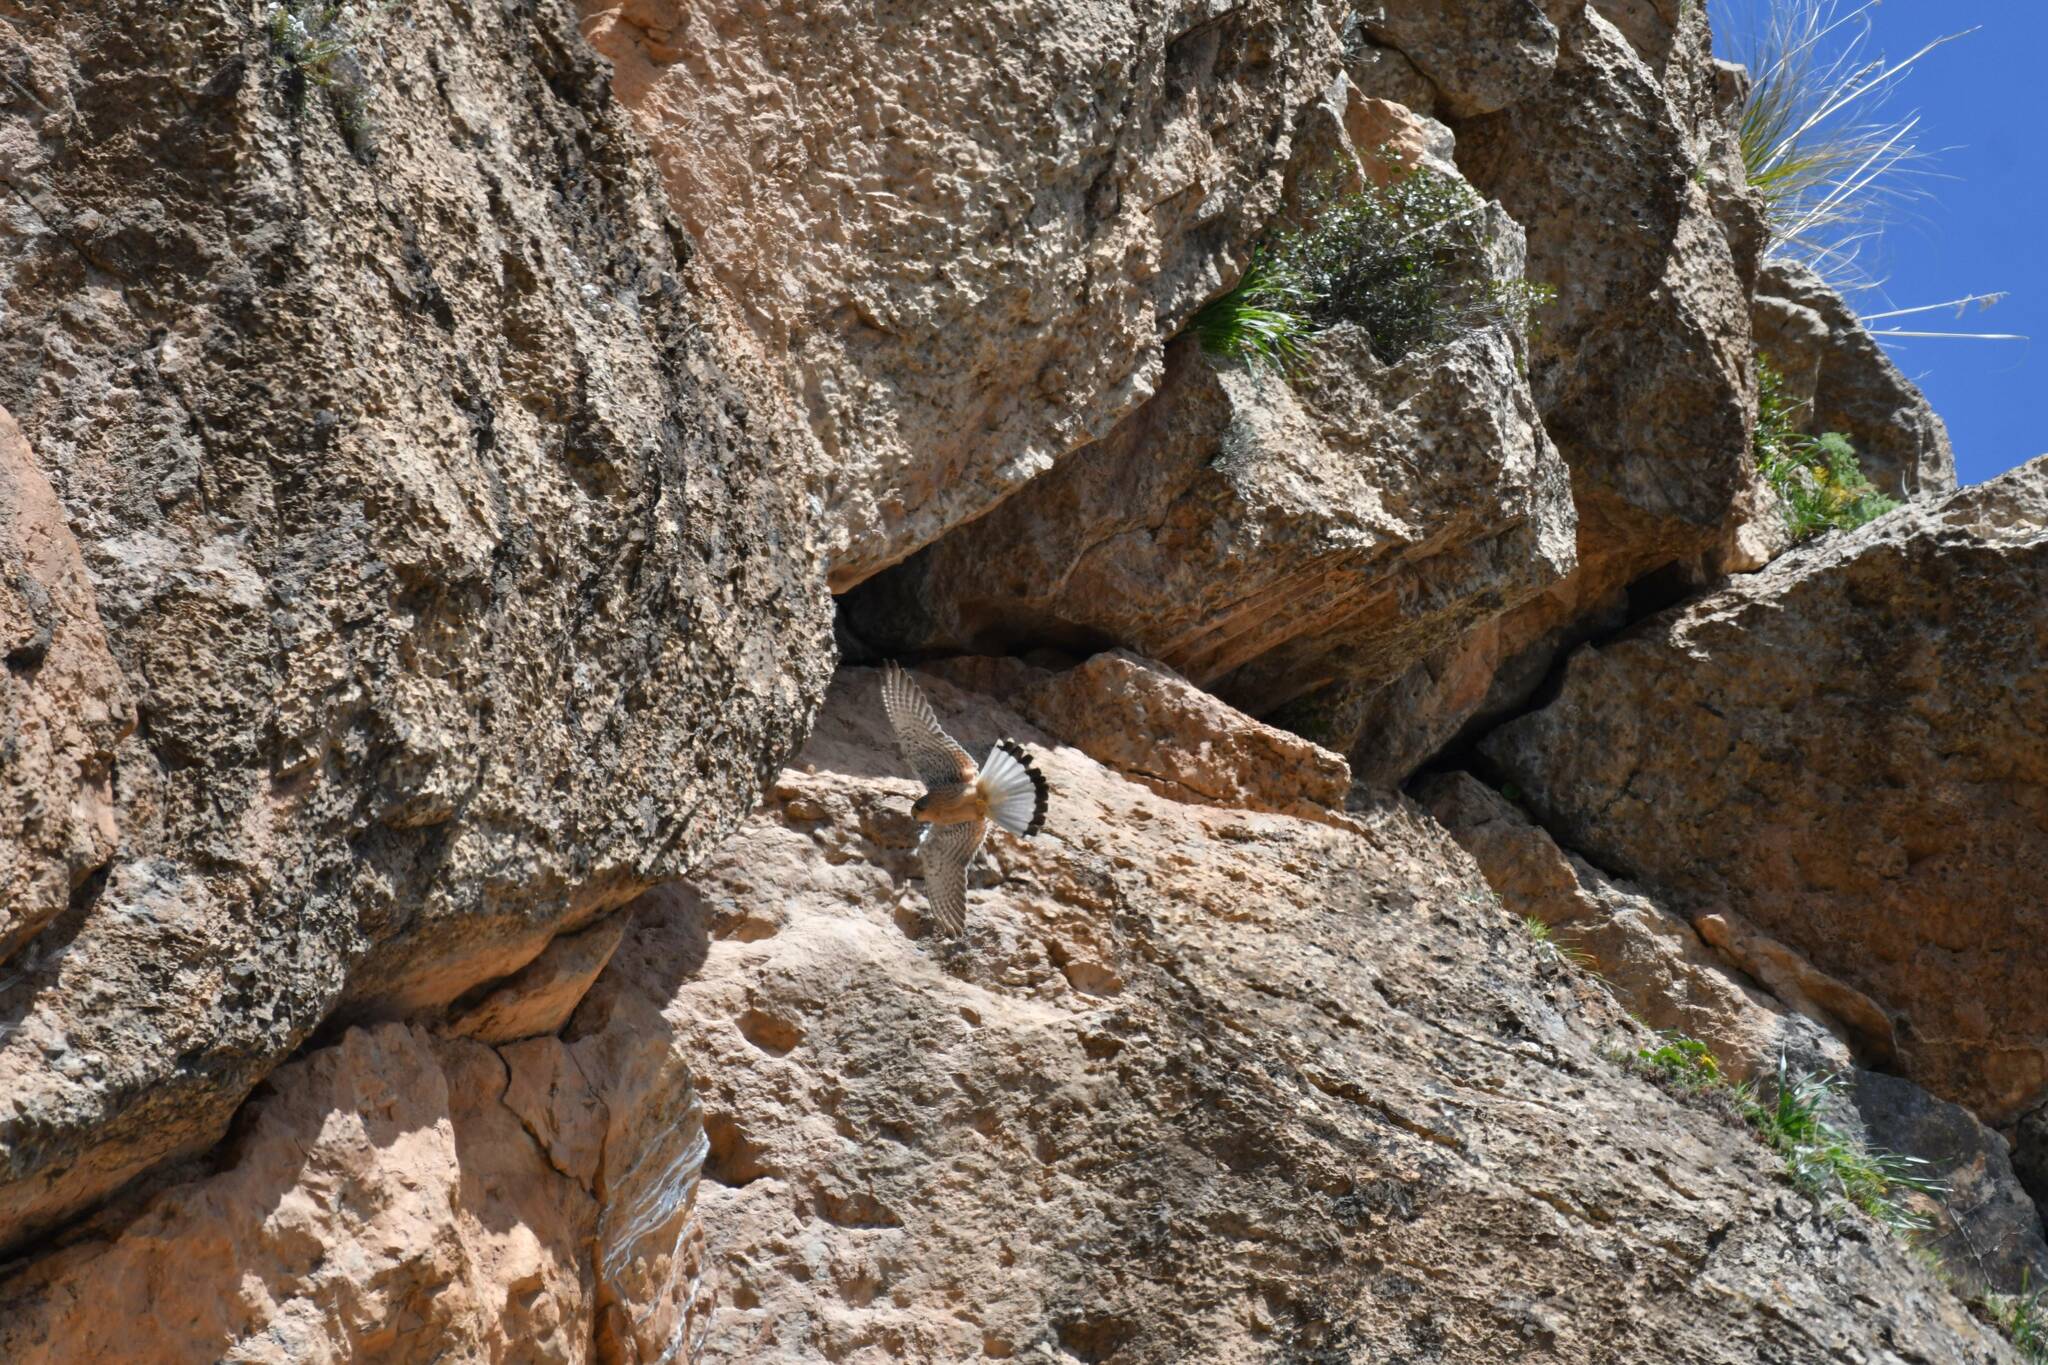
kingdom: Animalia
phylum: Chordata
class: Aves
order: Falconiformes
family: Falconidae
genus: Falco
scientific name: Falco naumanni
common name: Lesser kestrel
